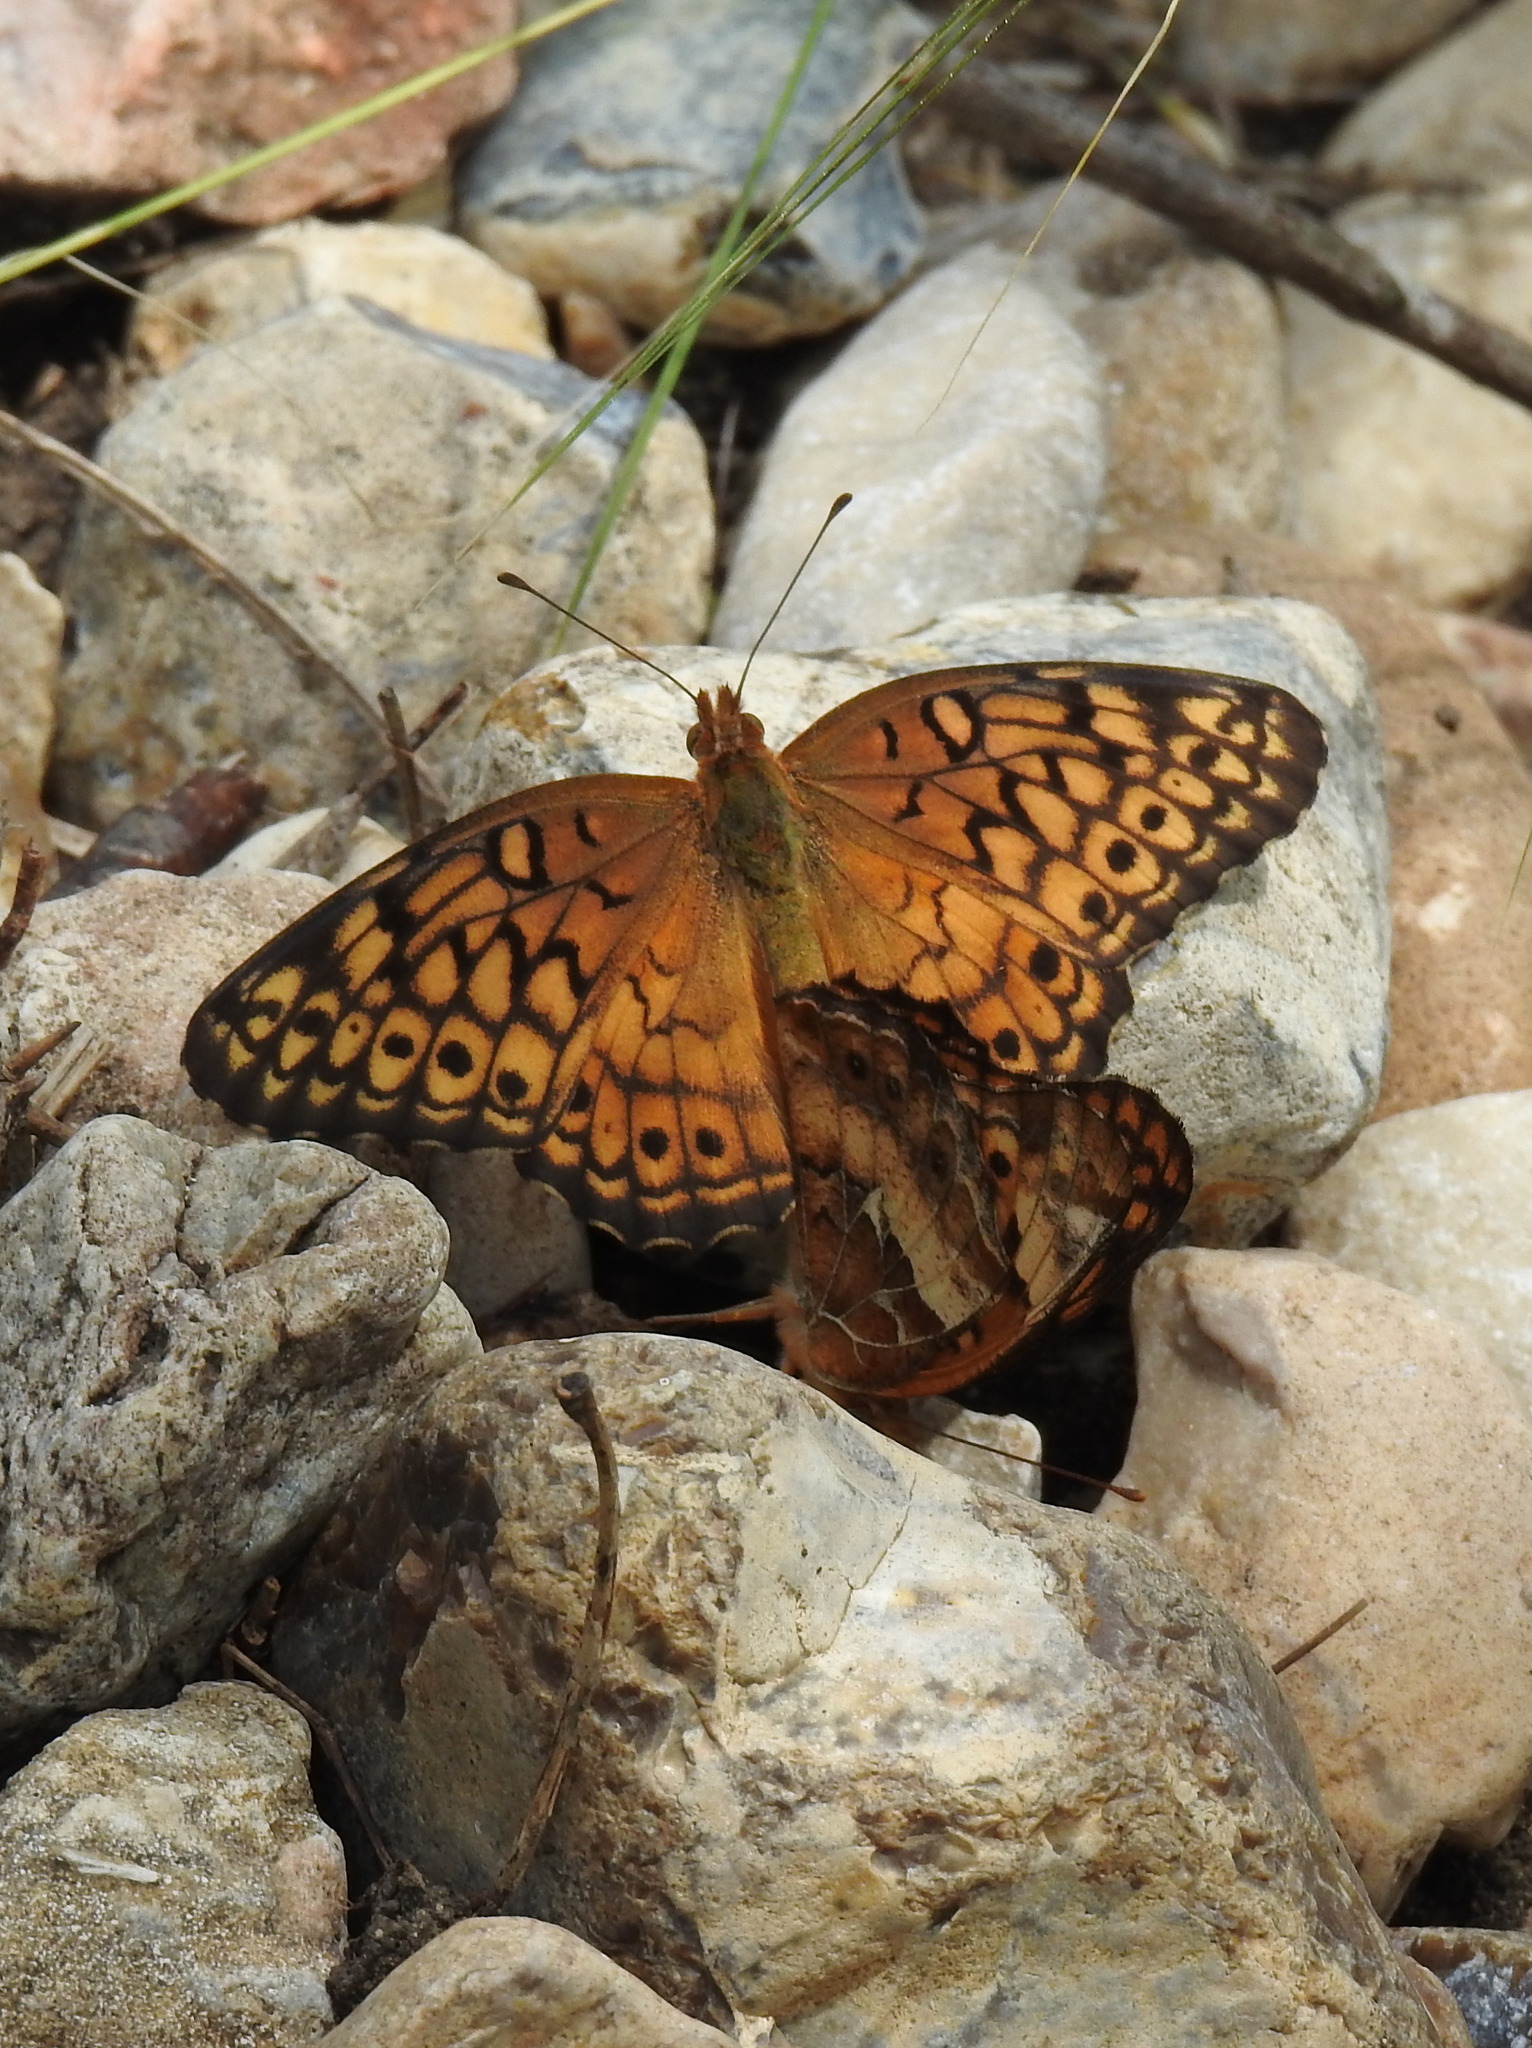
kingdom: Animalia
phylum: Arthropoda
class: Insecta
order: Lepidoptera
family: Nymphalidae
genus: Euptoieta
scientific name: Euptoieta claudia
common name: Variegated fritillary
